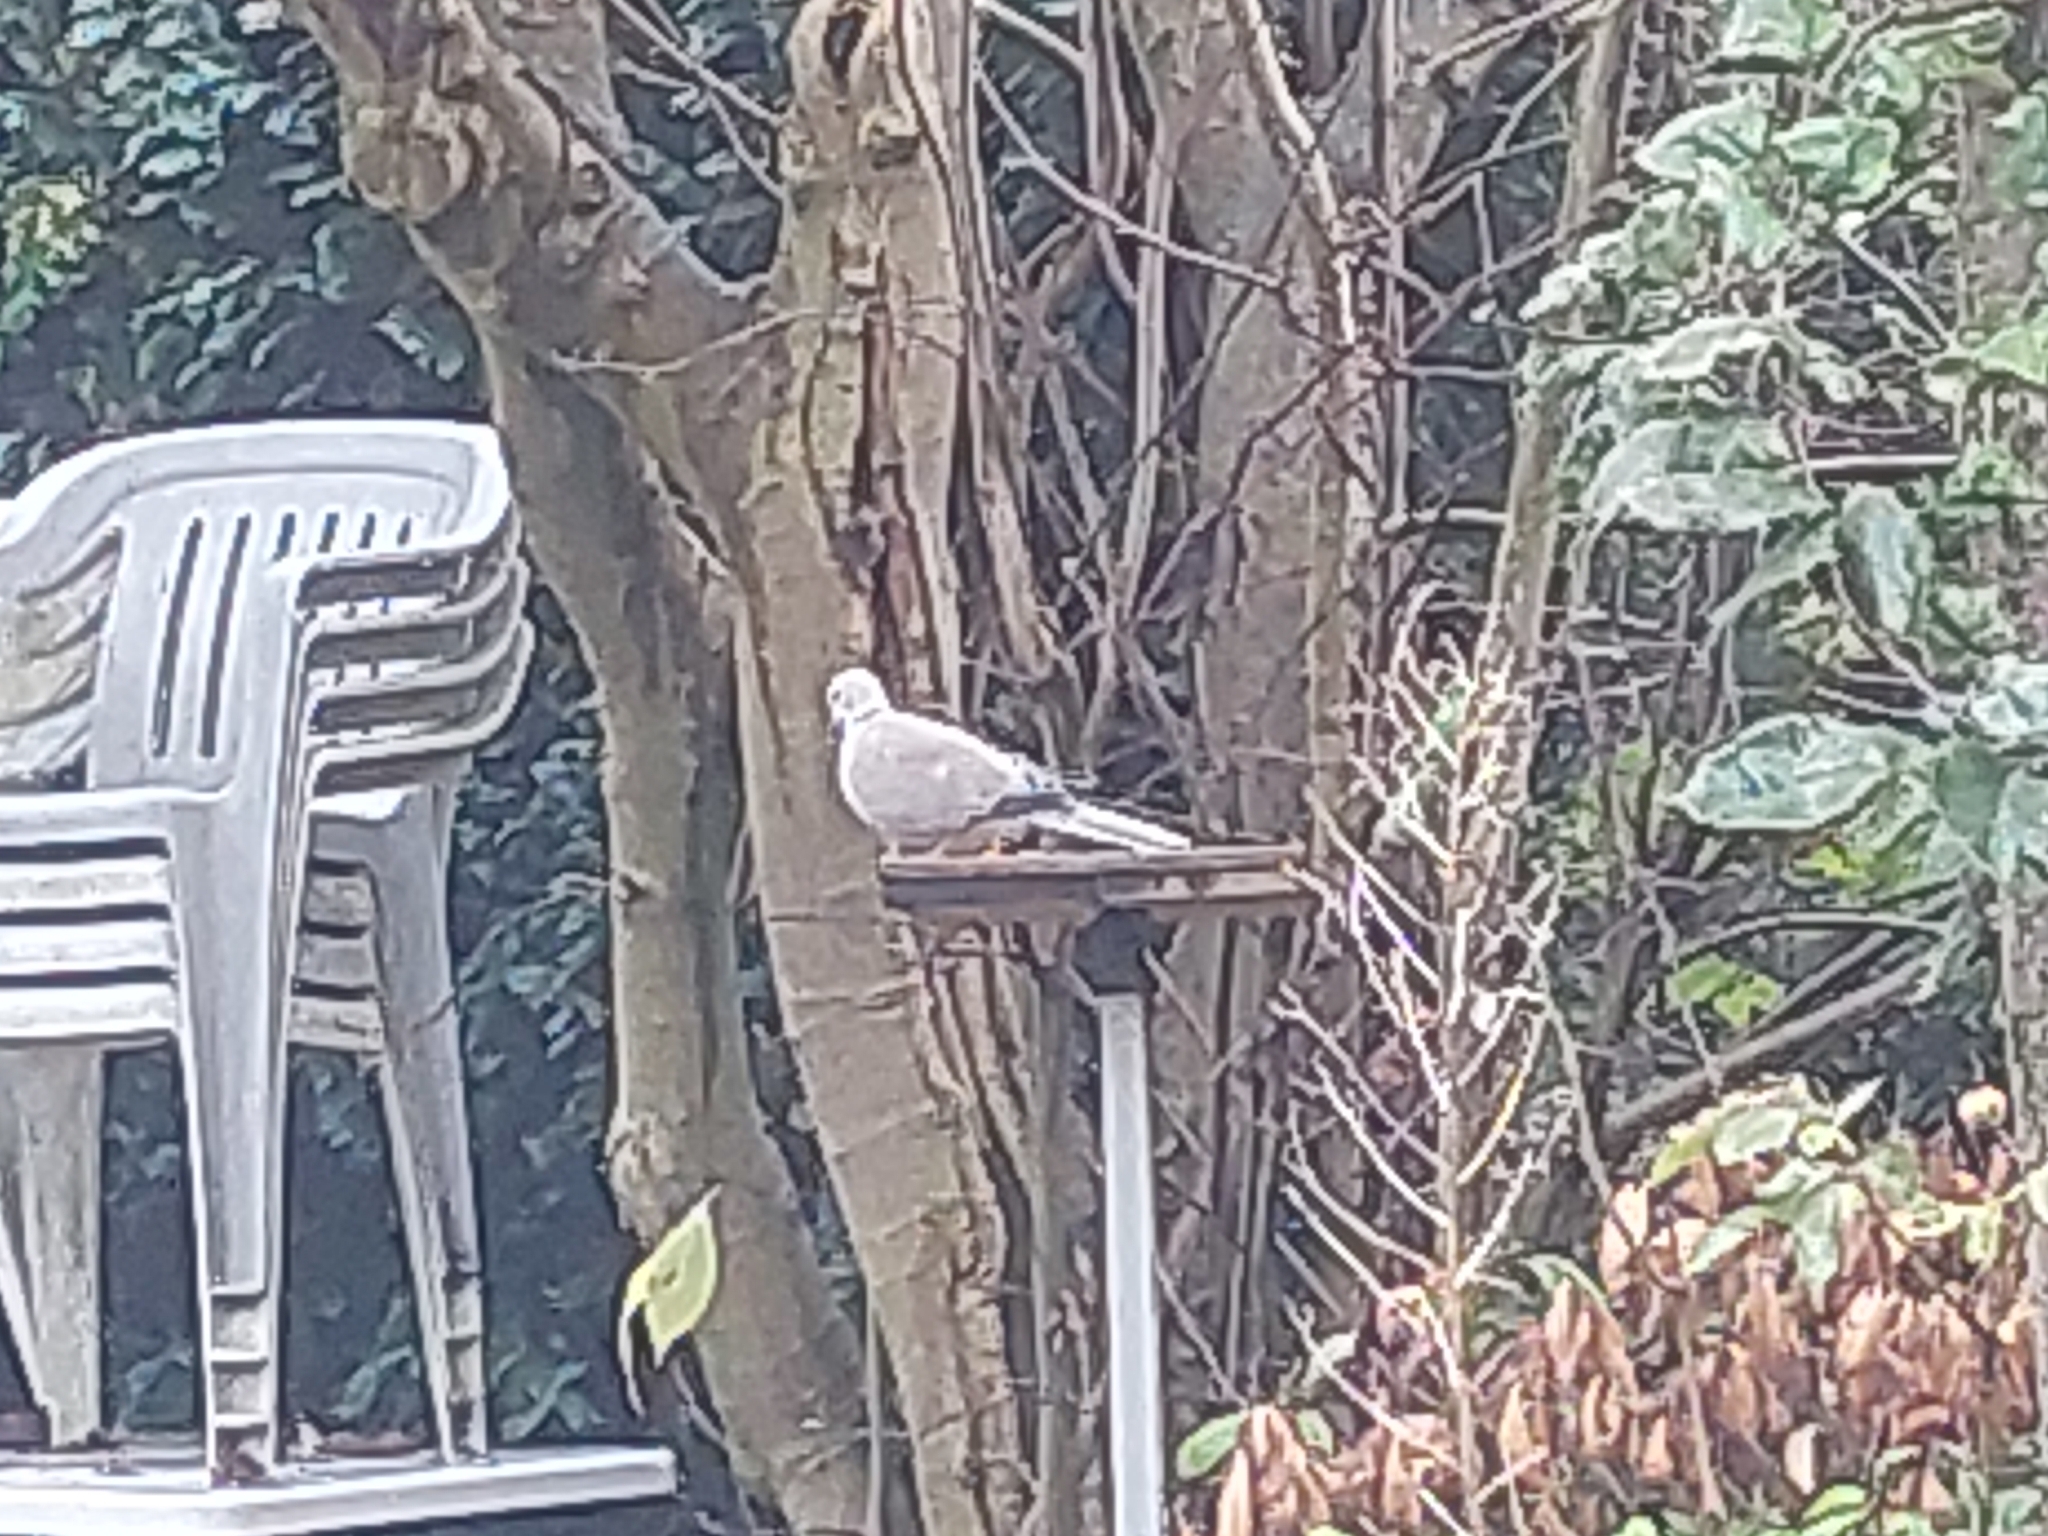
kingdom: Animalia
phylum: Chordata
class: Aves
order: Columbiformes
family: Columbidae
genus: Streptopelia
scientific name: Streptopelia decaocto
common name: Eurasian collared dove
